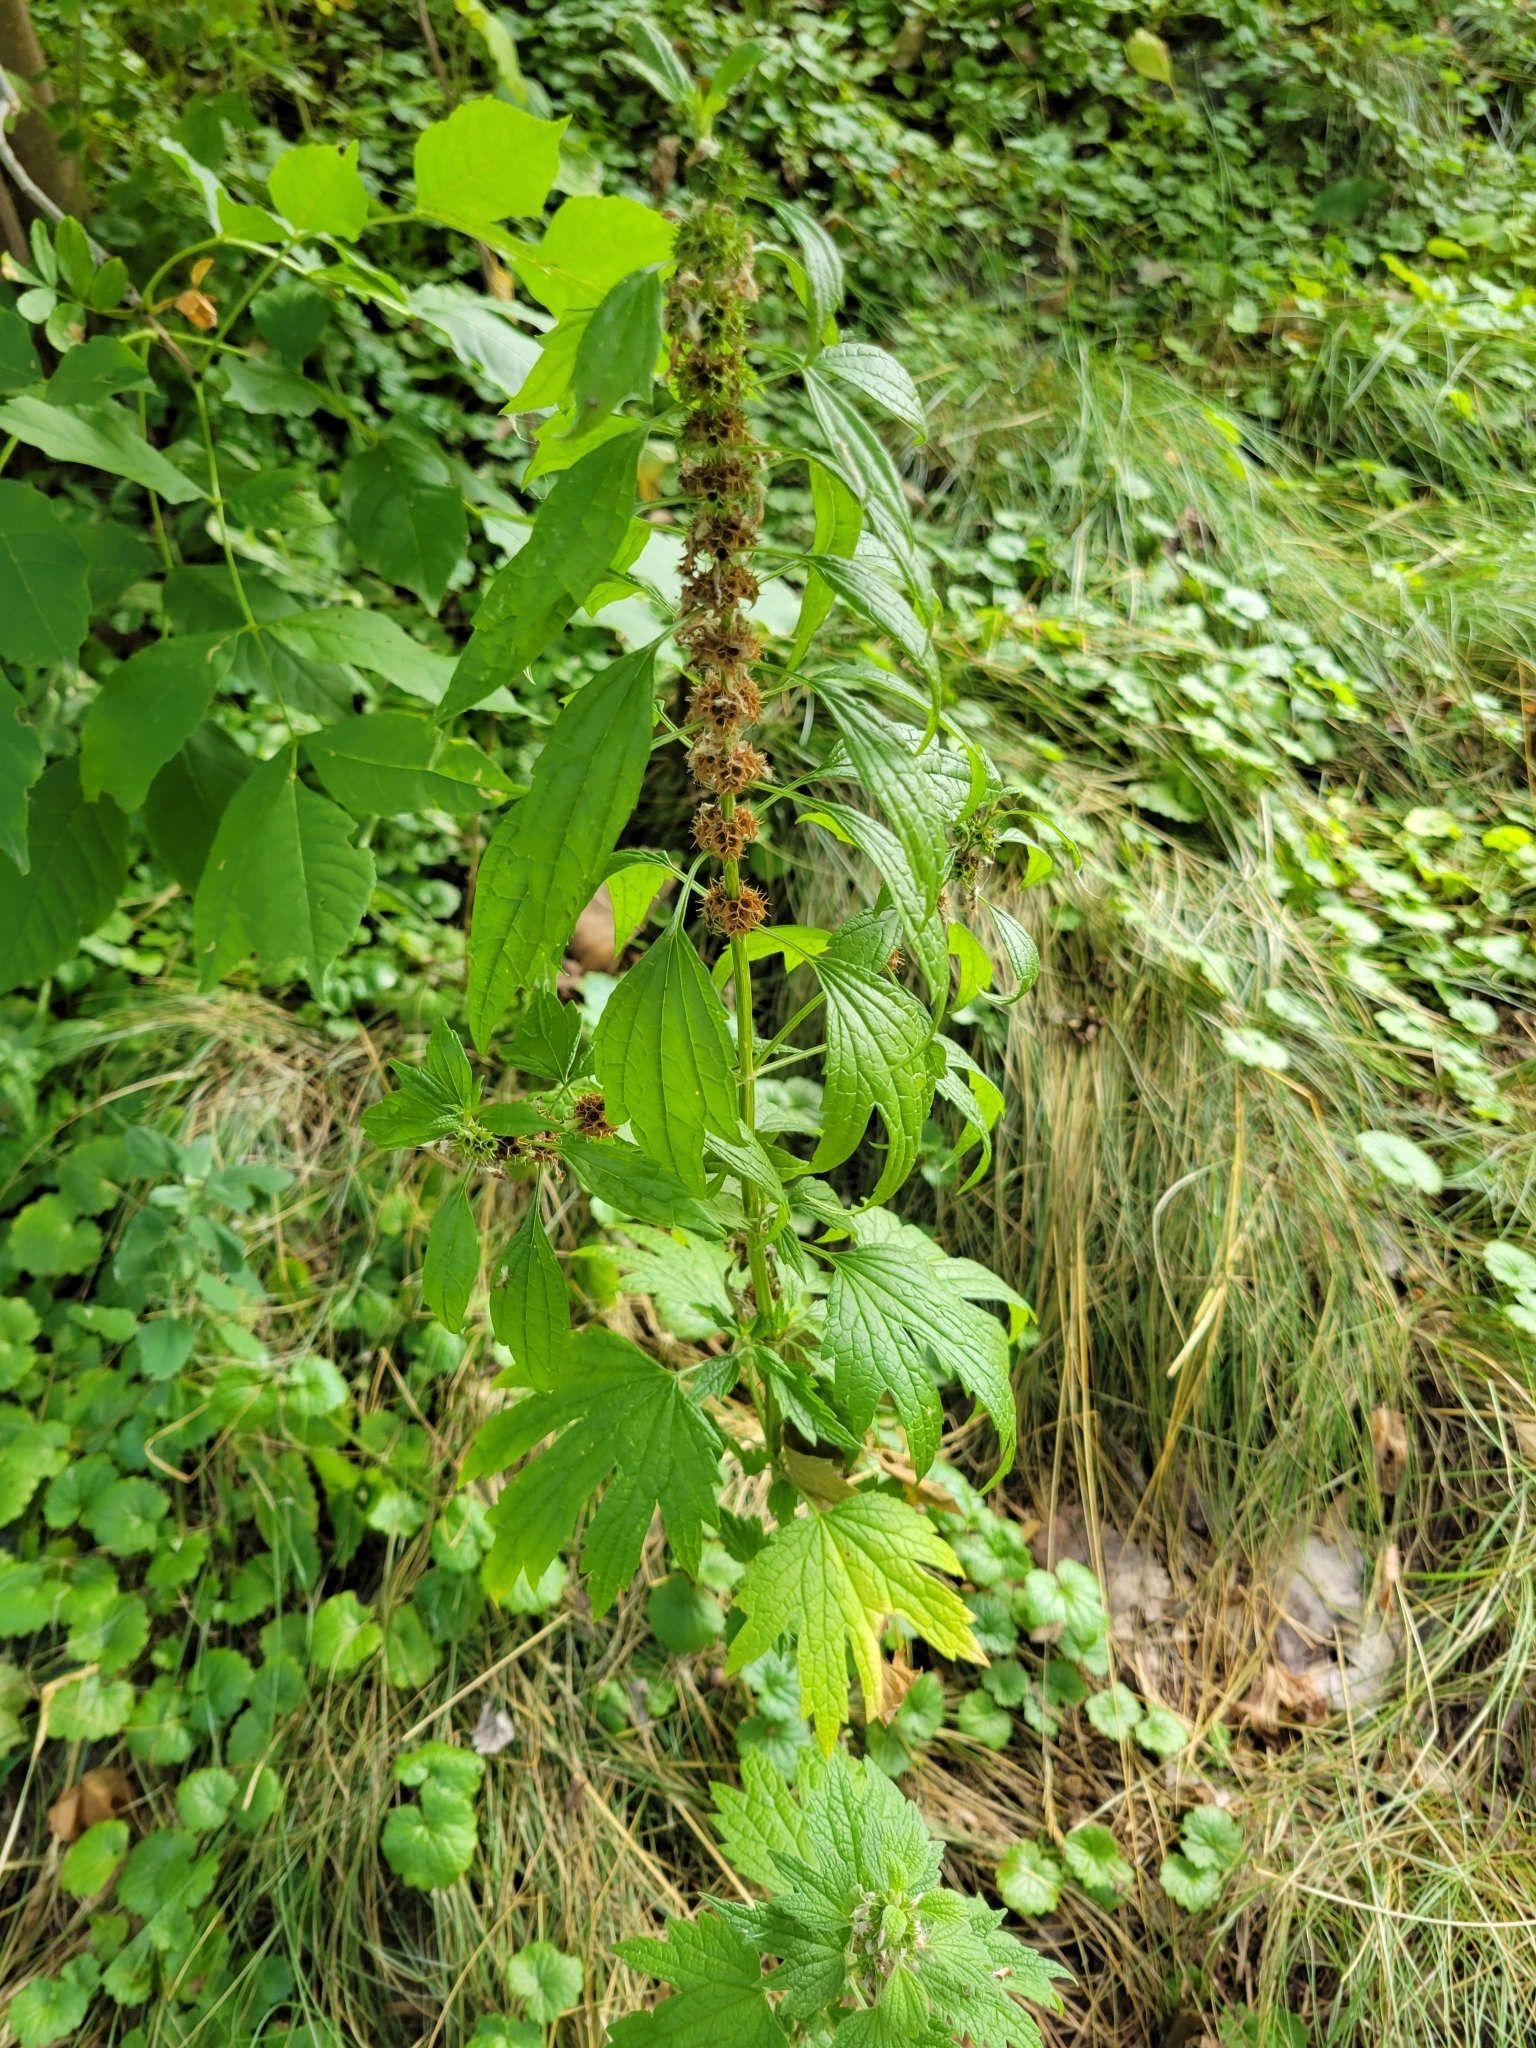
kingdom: Plantae
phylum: Tracheophyta
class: Magnoliopsida
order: Lamiales
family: Lamiaceae
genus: Leonurus
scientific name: Leonurus cardiaca
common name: Motherwort
